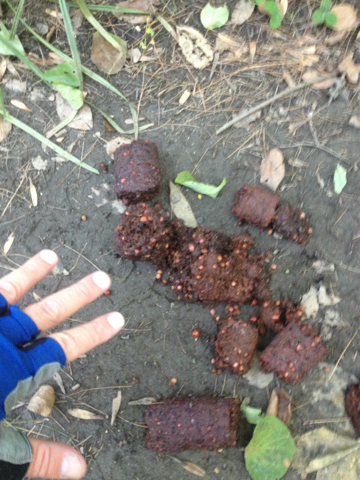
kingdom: Animalia
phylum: Chordata
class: Mammalia
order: Carnivora
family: Ursidae
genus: Ursus
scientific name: Ursus americanus
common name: American black bear
